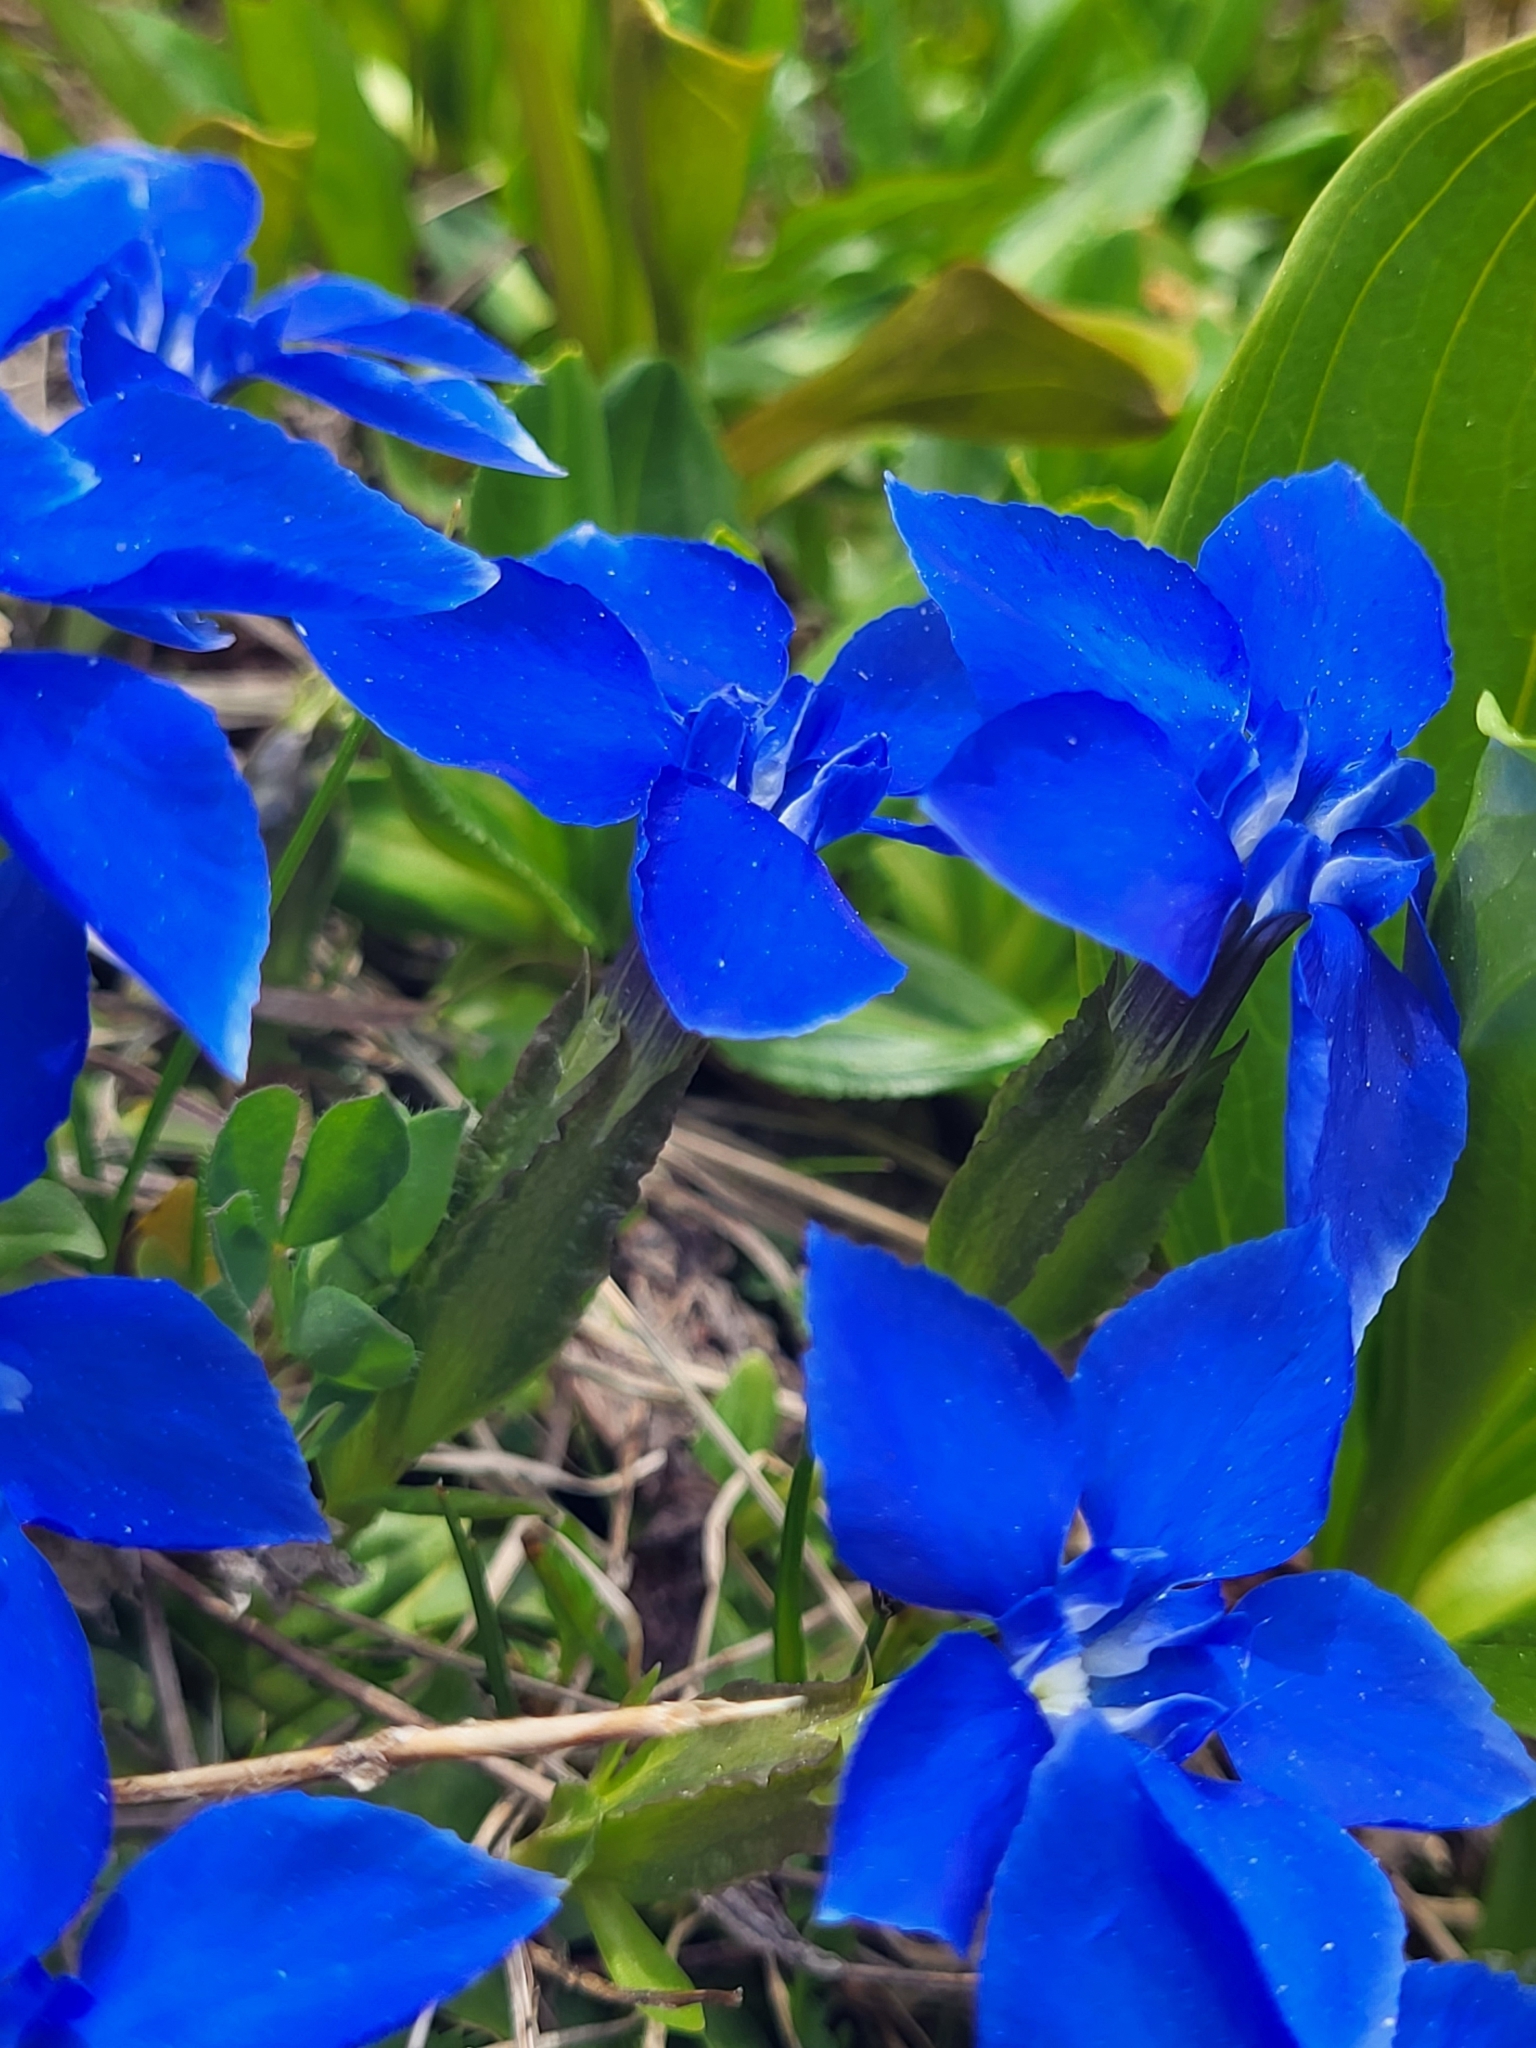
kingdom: Plantae
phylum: Tracheophyta
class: Magnoliopsida
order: Gentianales
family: Gentianaceae
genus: Gentiana
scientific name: Gentiana verna
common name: Spring gentian
